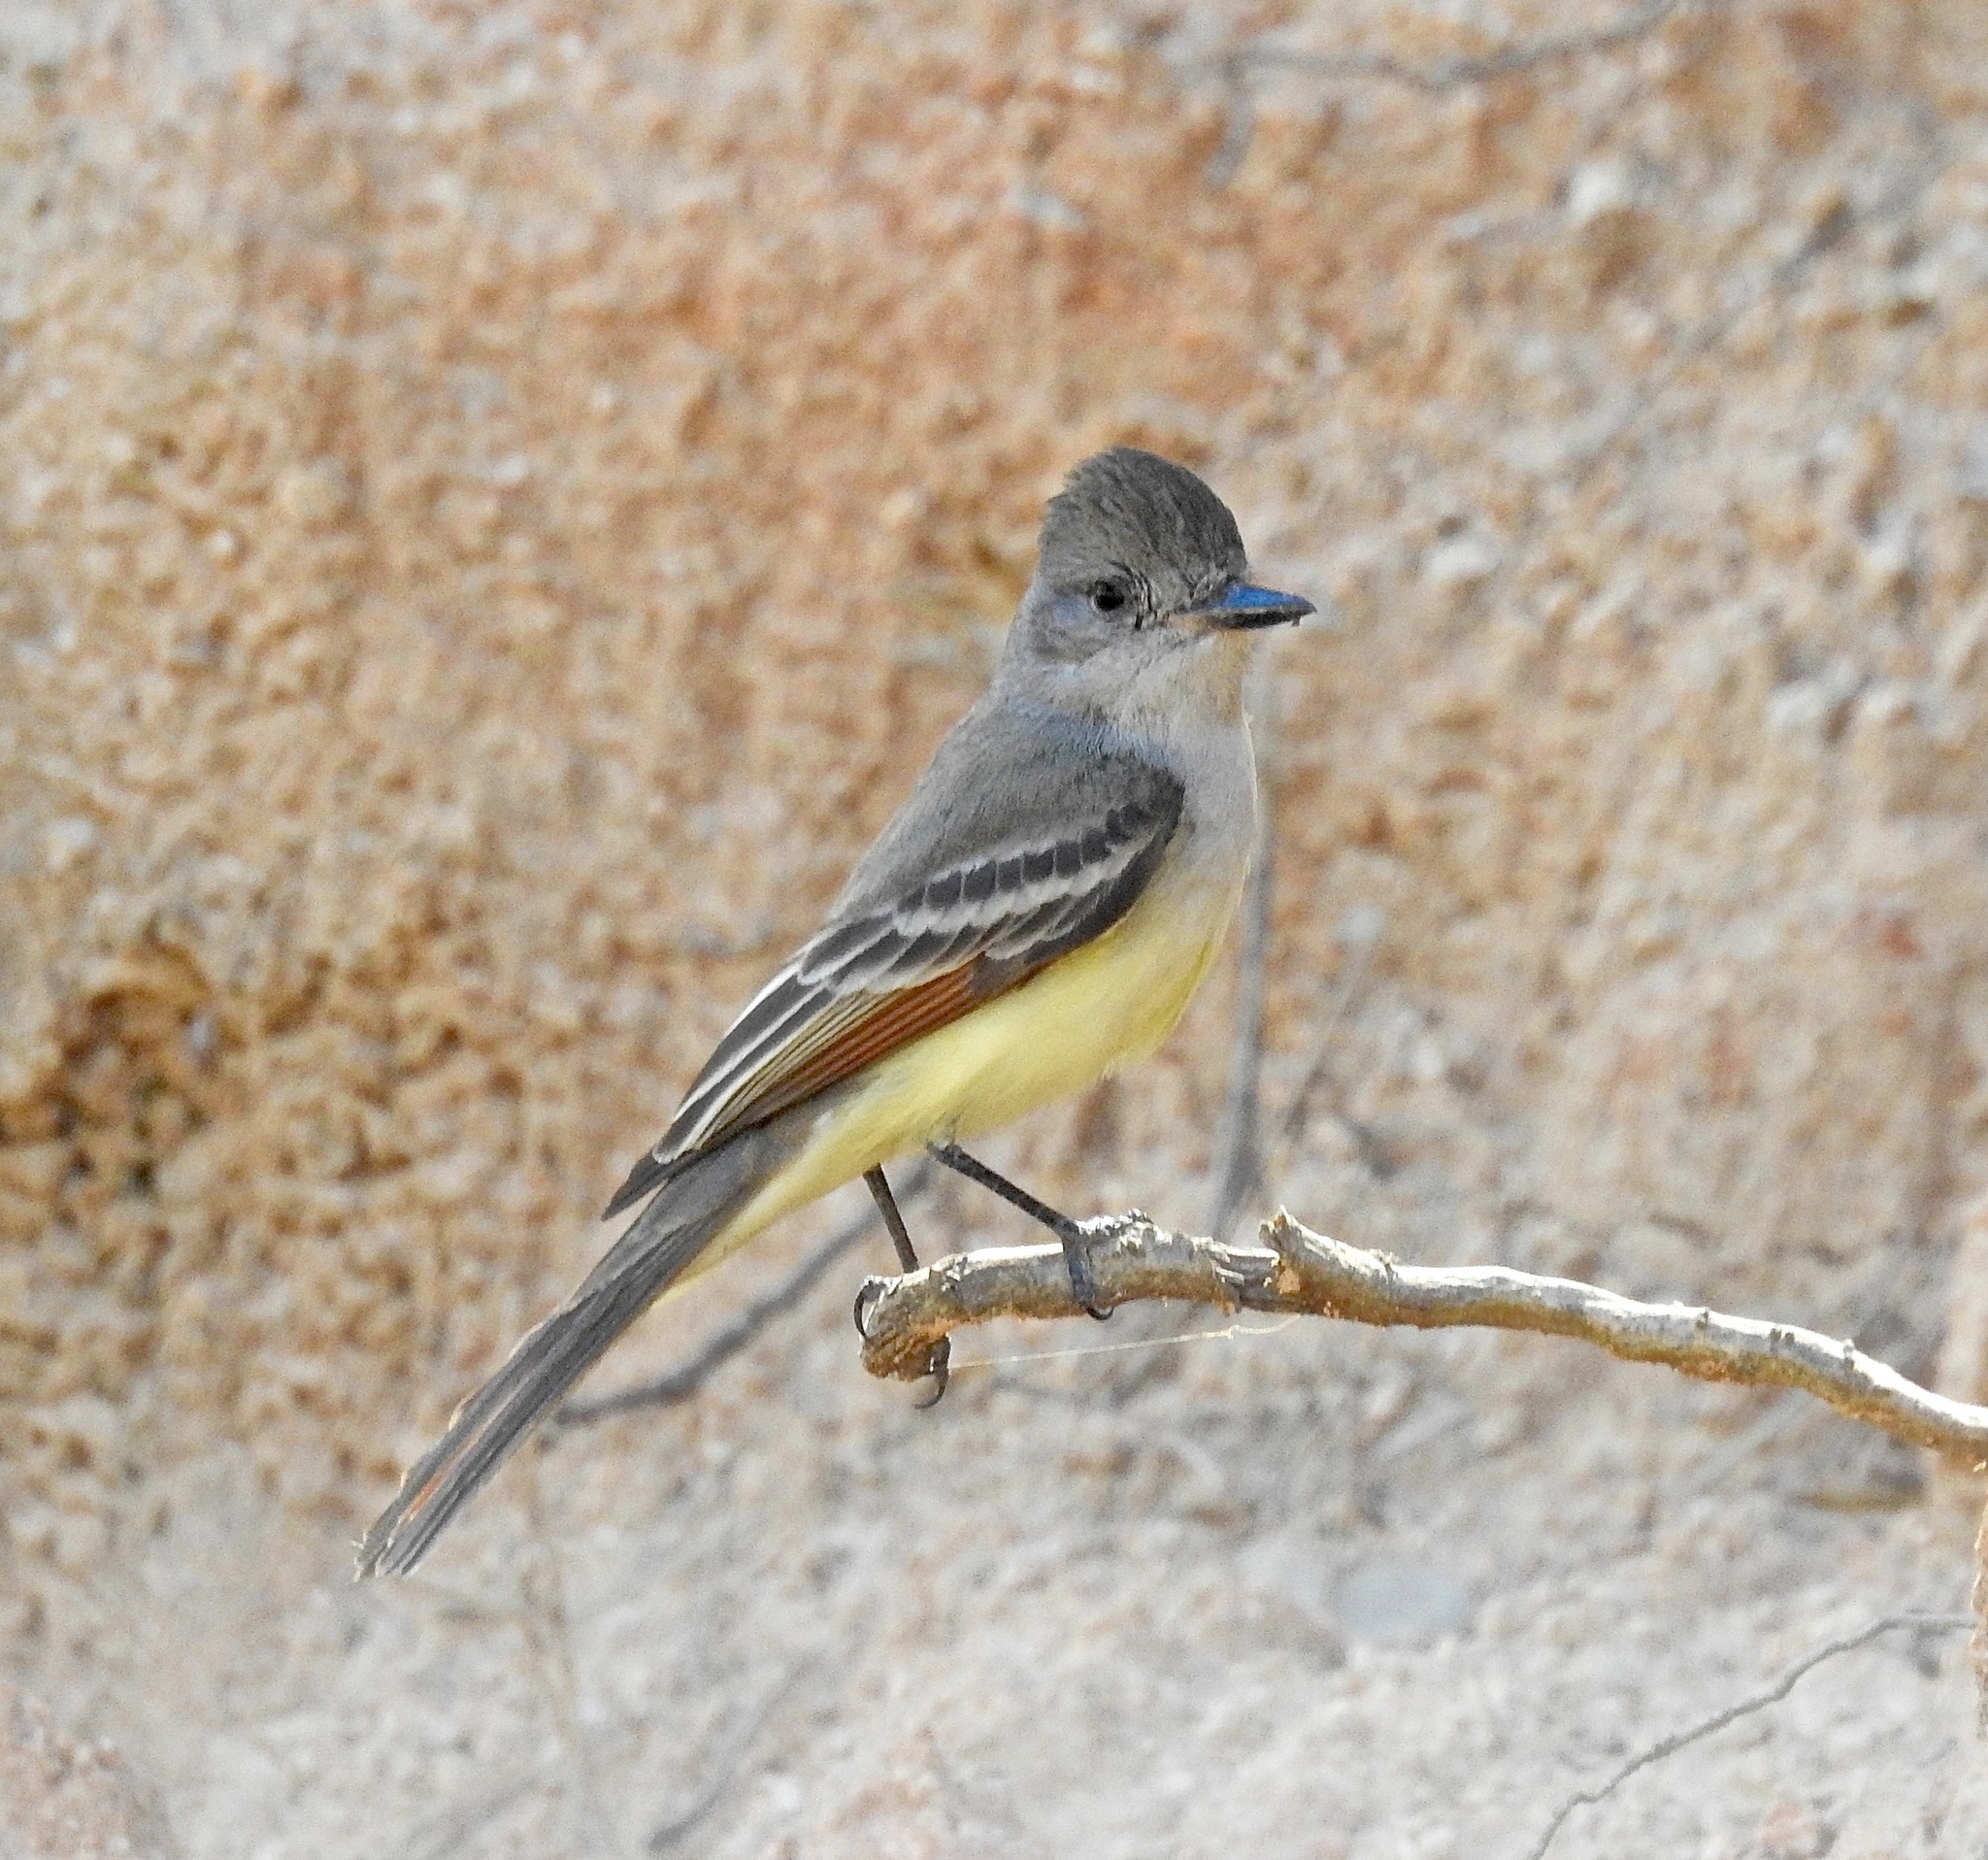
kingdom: Animalia
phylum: Chordata
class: Aves
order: Passeriformes
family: Tyrannidae
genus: Myiarchus
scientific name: Myiarchus cinerascens
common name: Ash-throated flycatcher
